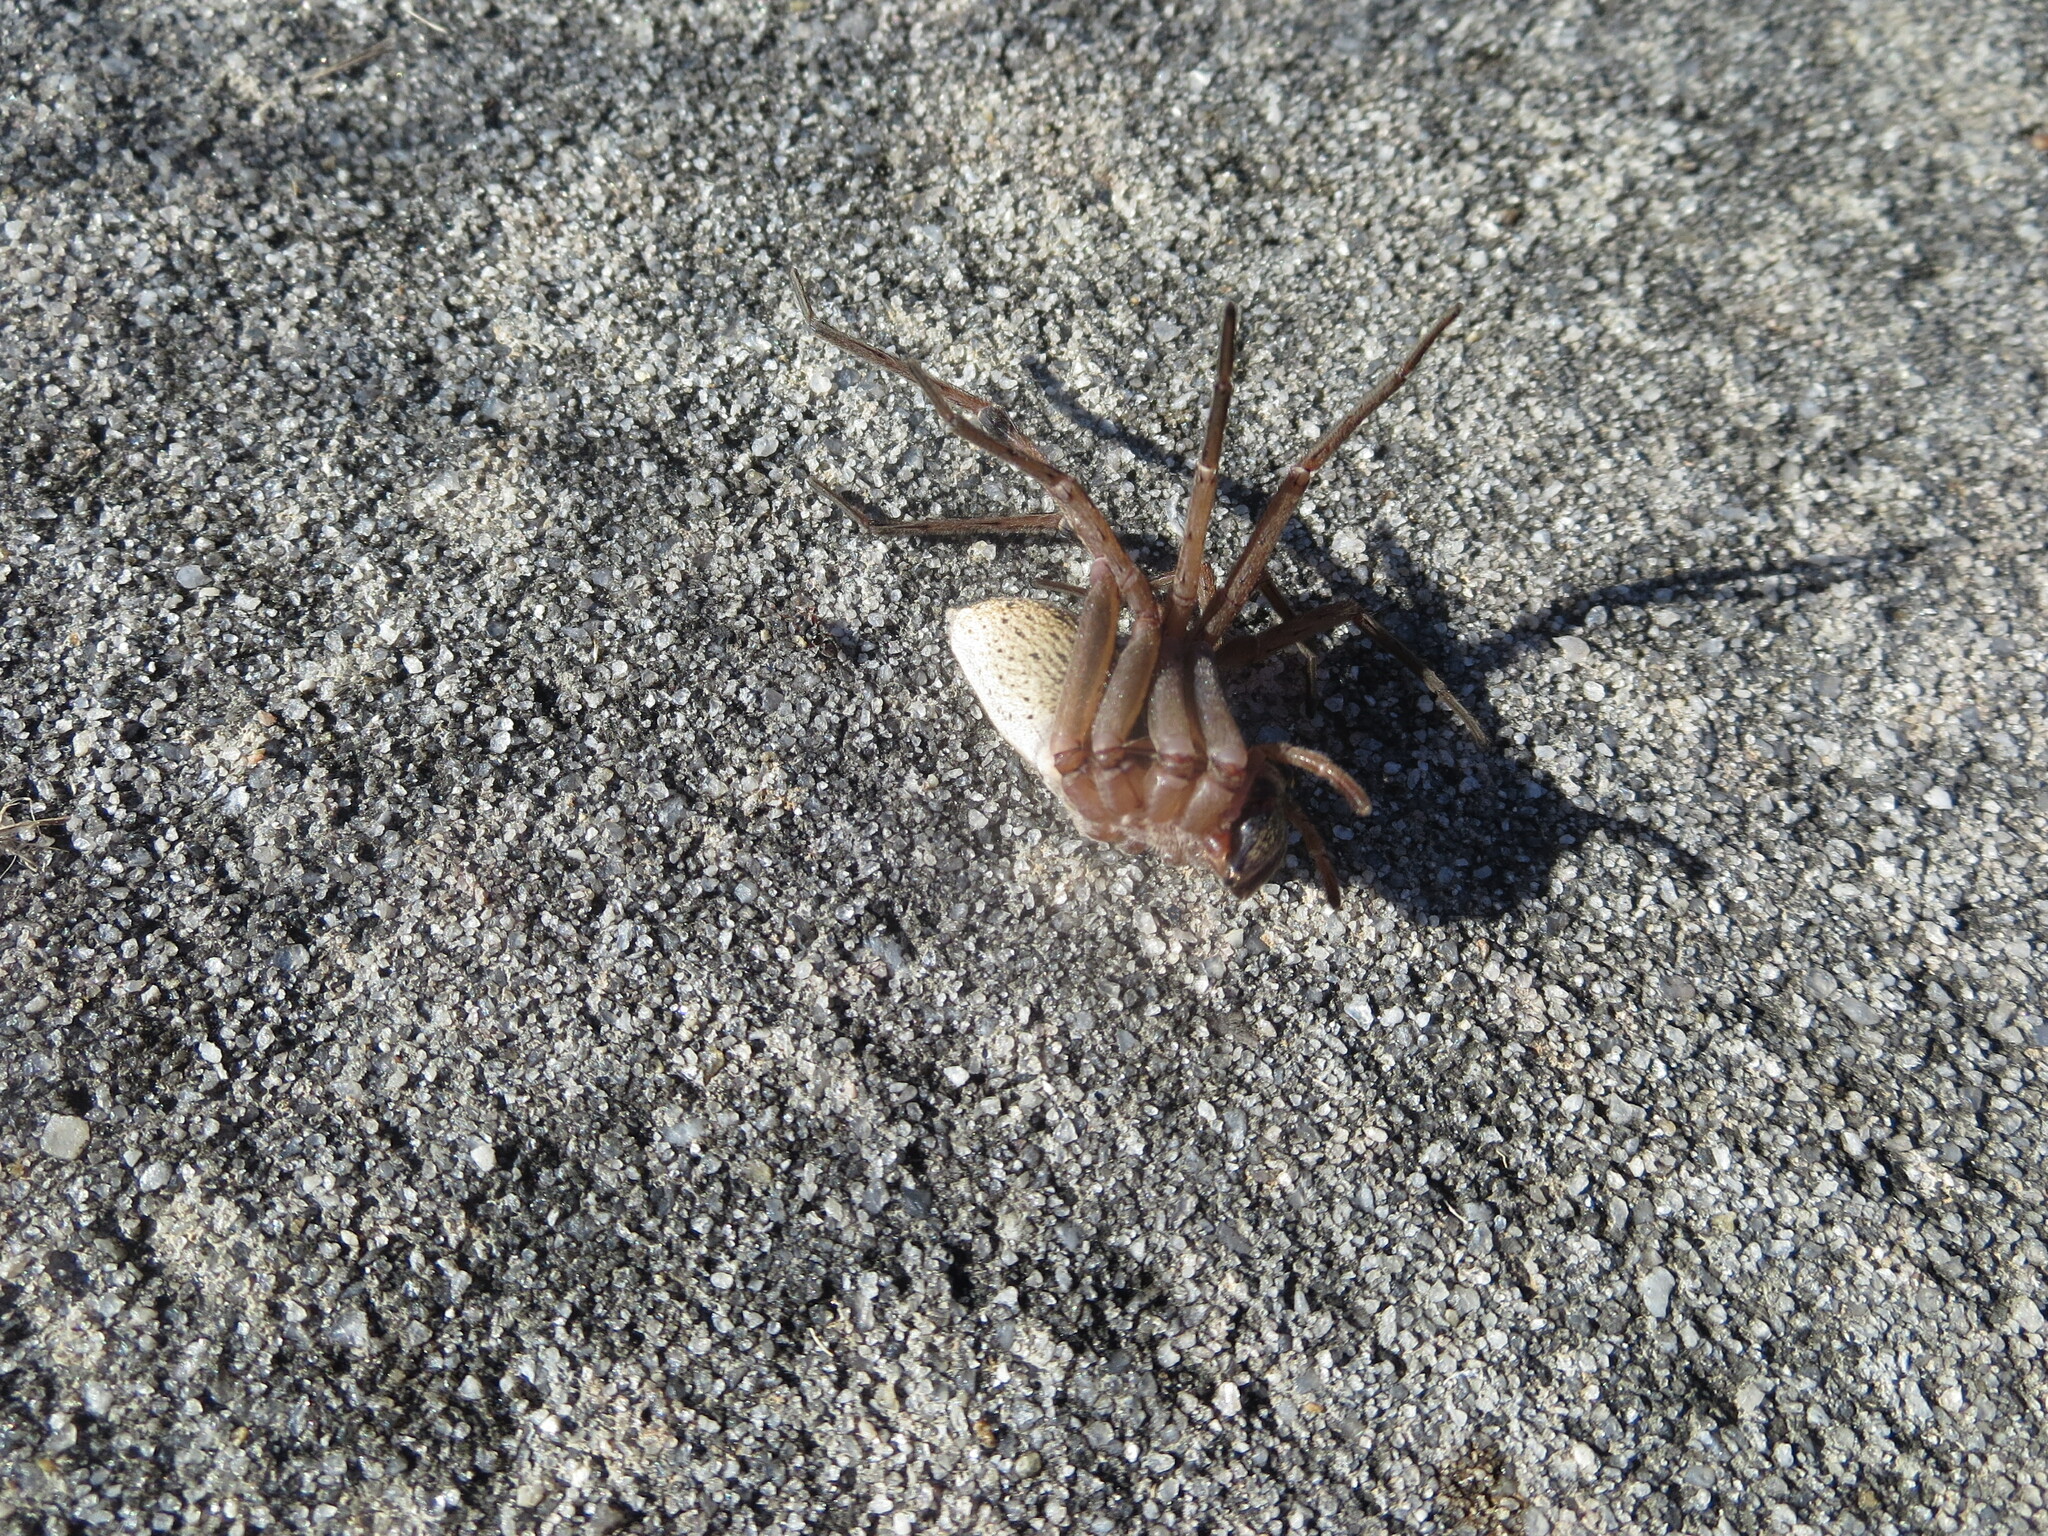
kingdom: Animalia
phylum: Arthropoda
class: Arachnida
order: Araneae
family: Lycosidae
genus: Rabidosa
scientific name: Rabidosa rabida
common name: Rabid wolf spider
